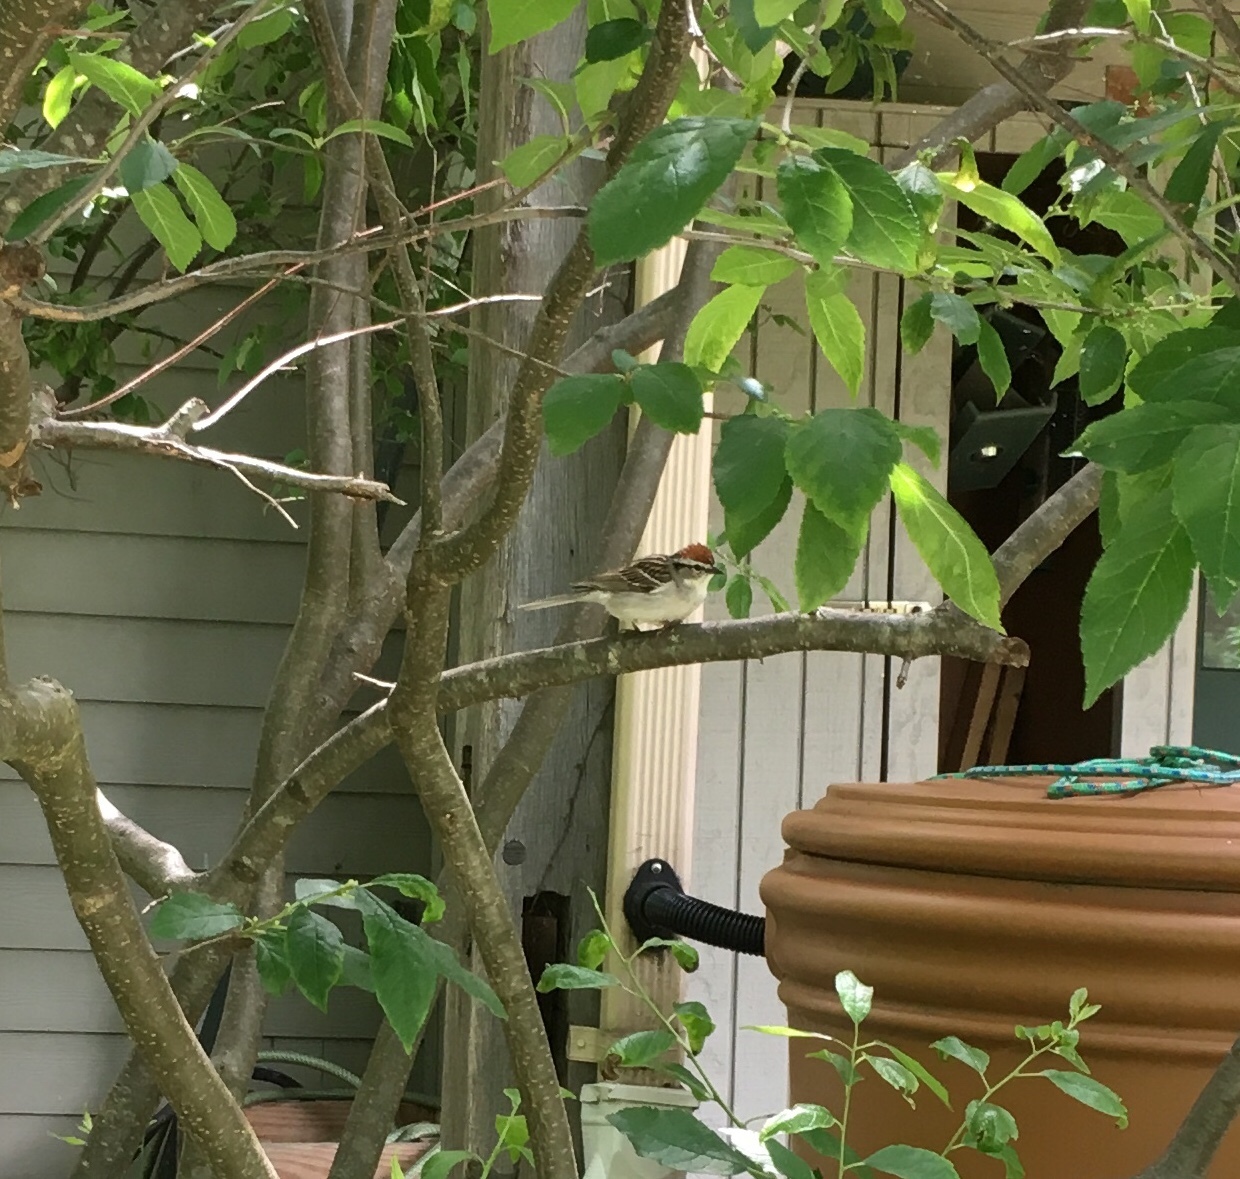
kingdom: Animalia
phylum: Chordata
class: Aves
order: Passeriformes
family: Passerellidae
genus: Spizella
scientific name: Spizella passerina
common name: Chipping sparrow
